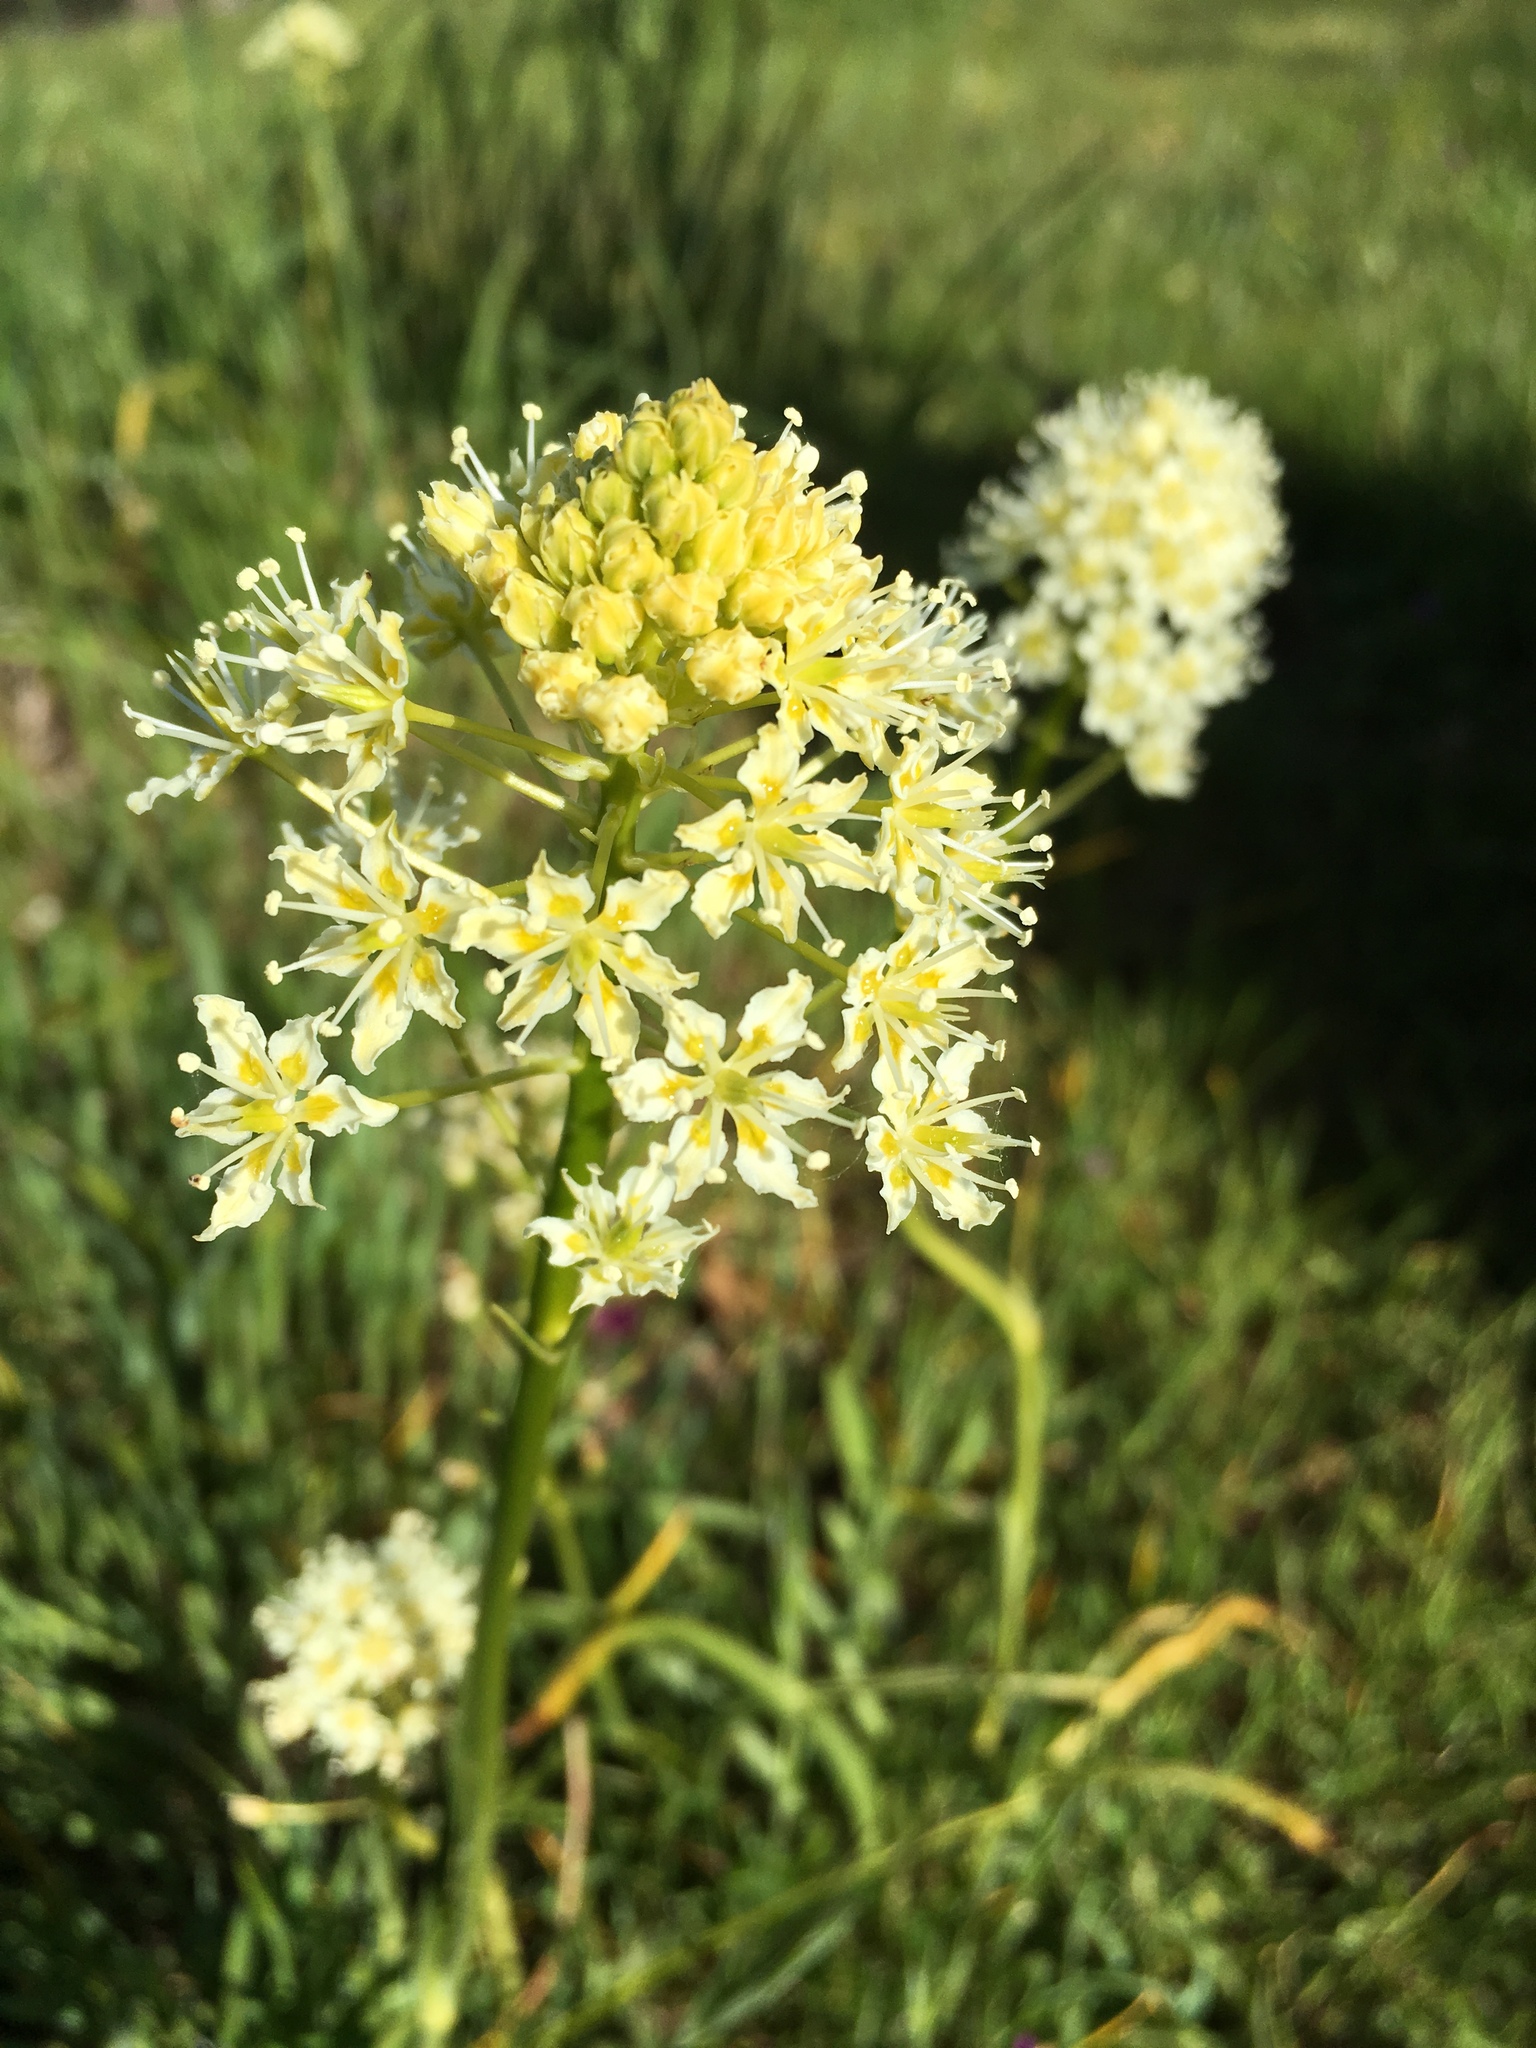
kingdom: Plantae
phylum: Tracheophyta
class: Liliopsida
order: Liliales
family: Melanthiaceae
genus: Toxicoscordion
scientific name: Toxicoscordion venenosum
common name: Meadow death camas
